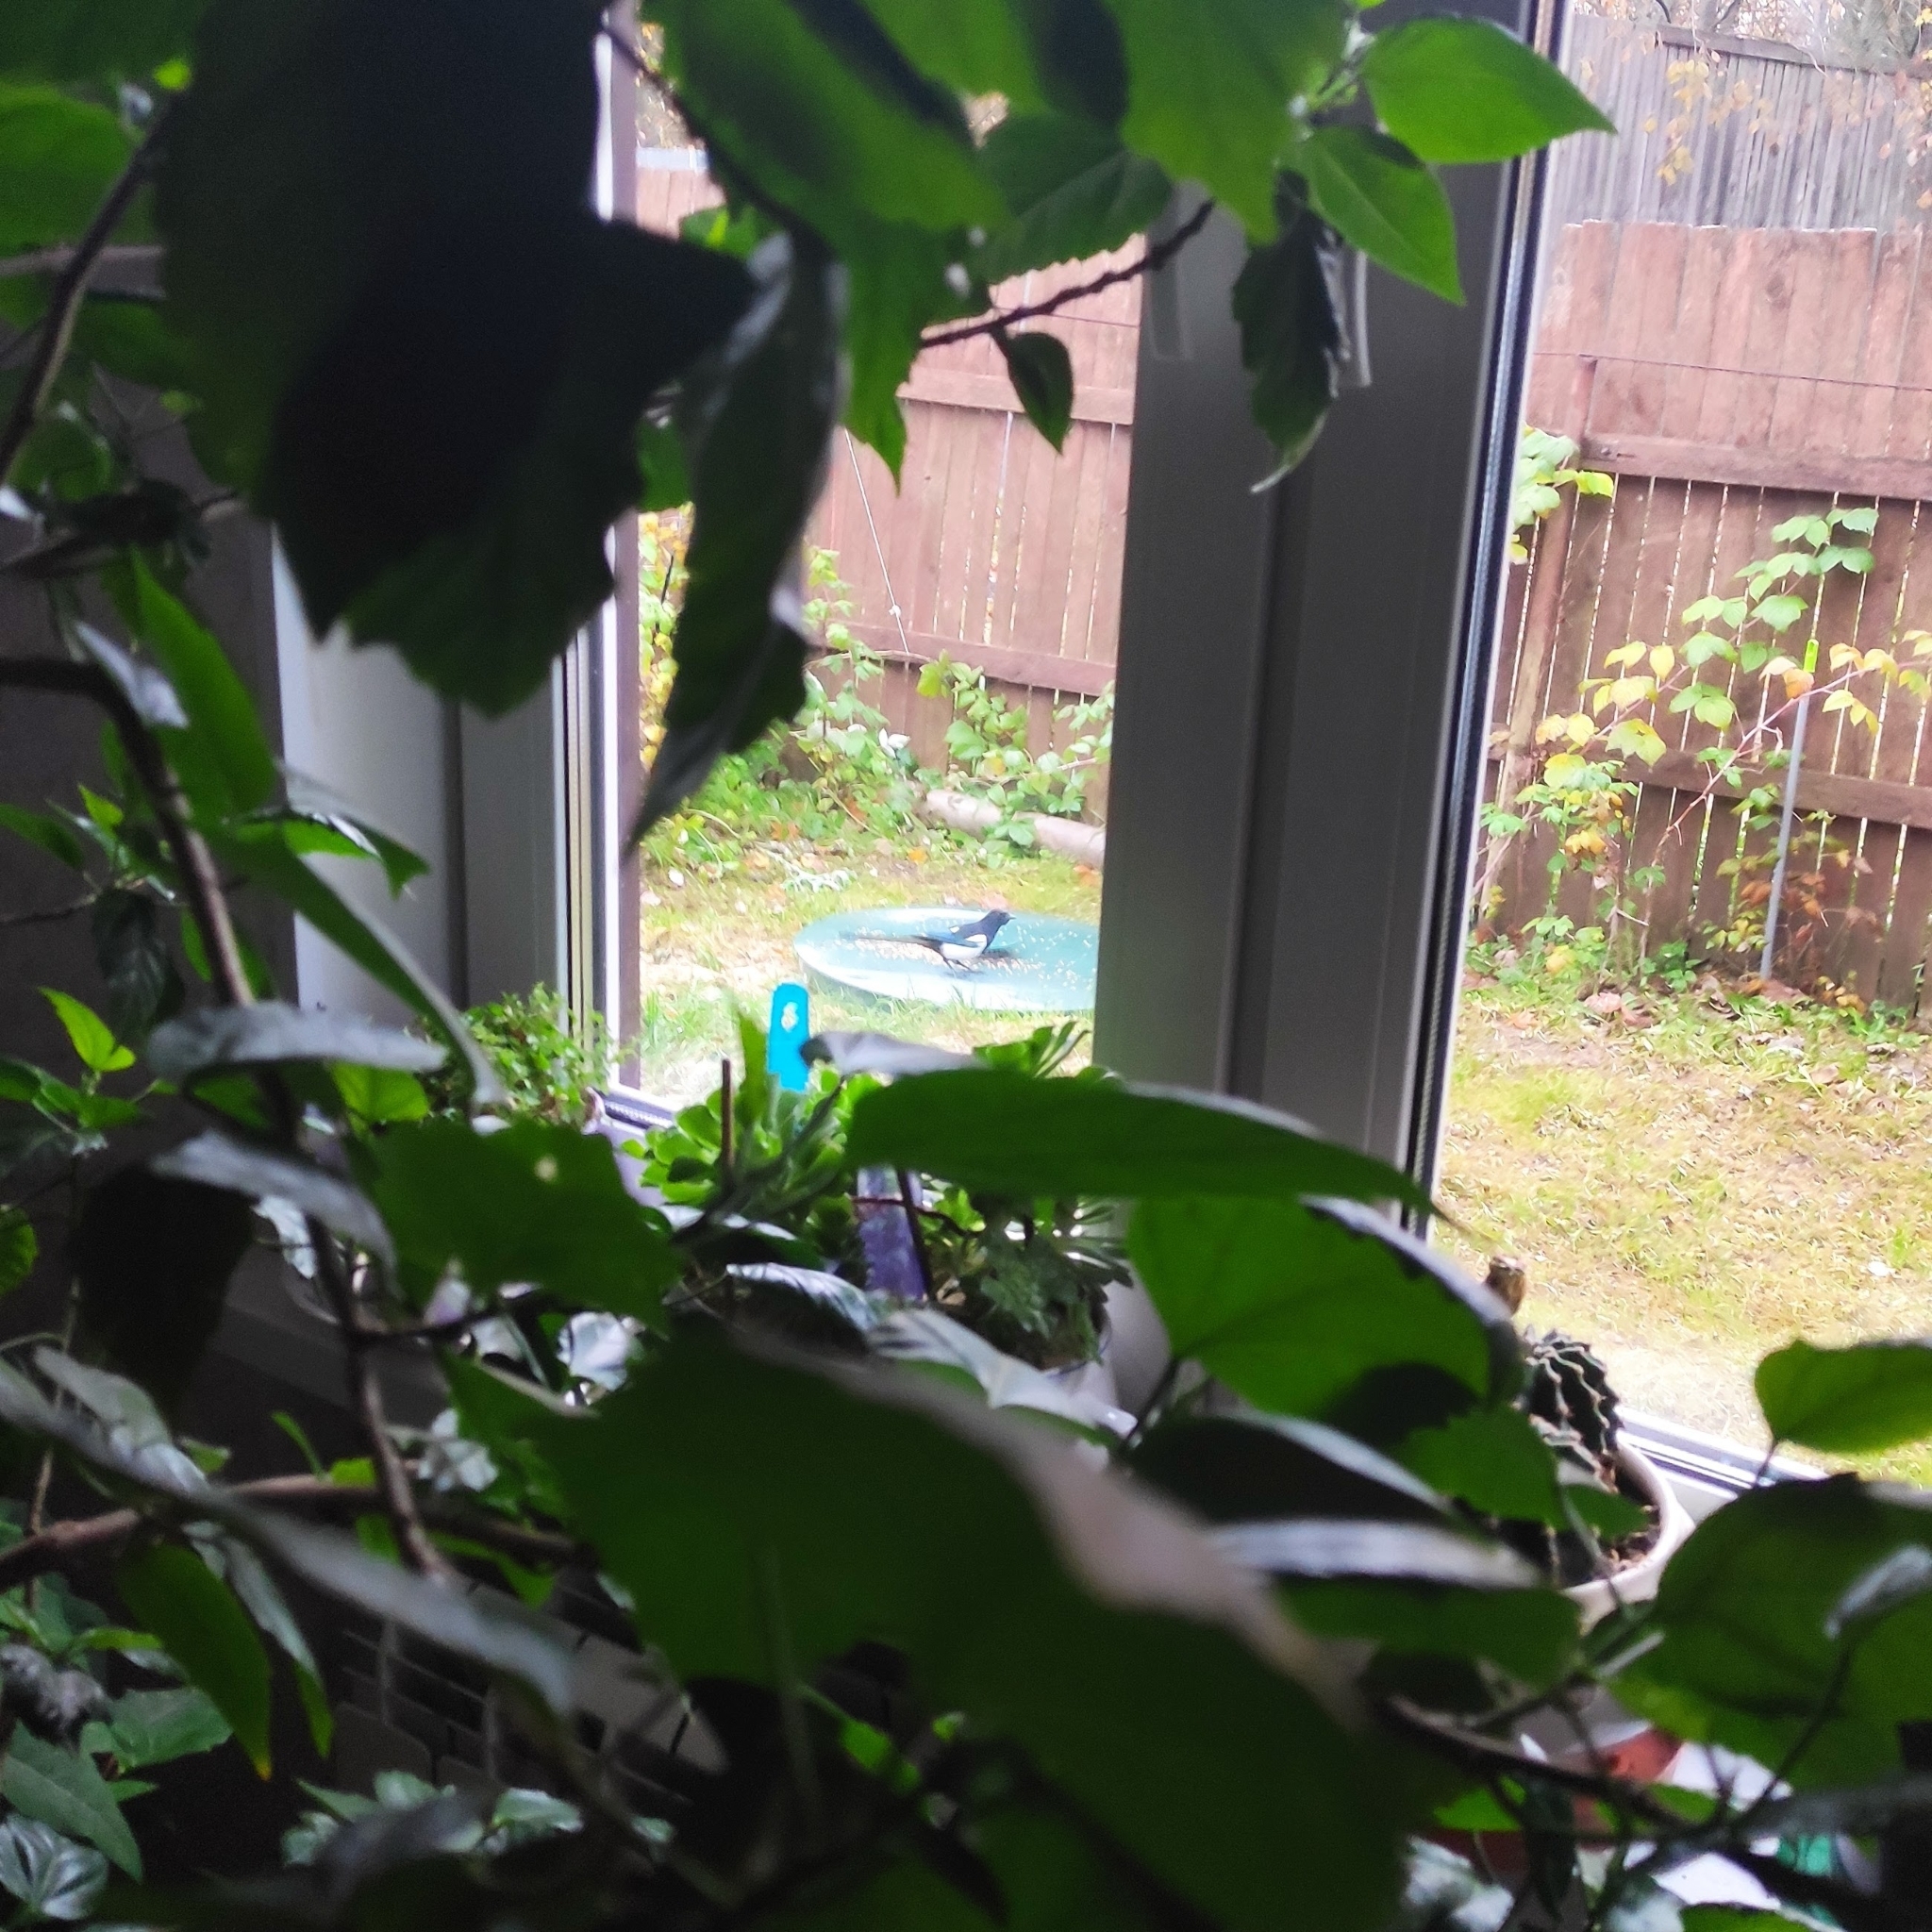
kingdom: Animalia
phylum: Chordata
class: Aves
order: Passeriformes
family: Corvidae
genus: Pica
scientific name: Pica pica
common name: Eurasian magpie
